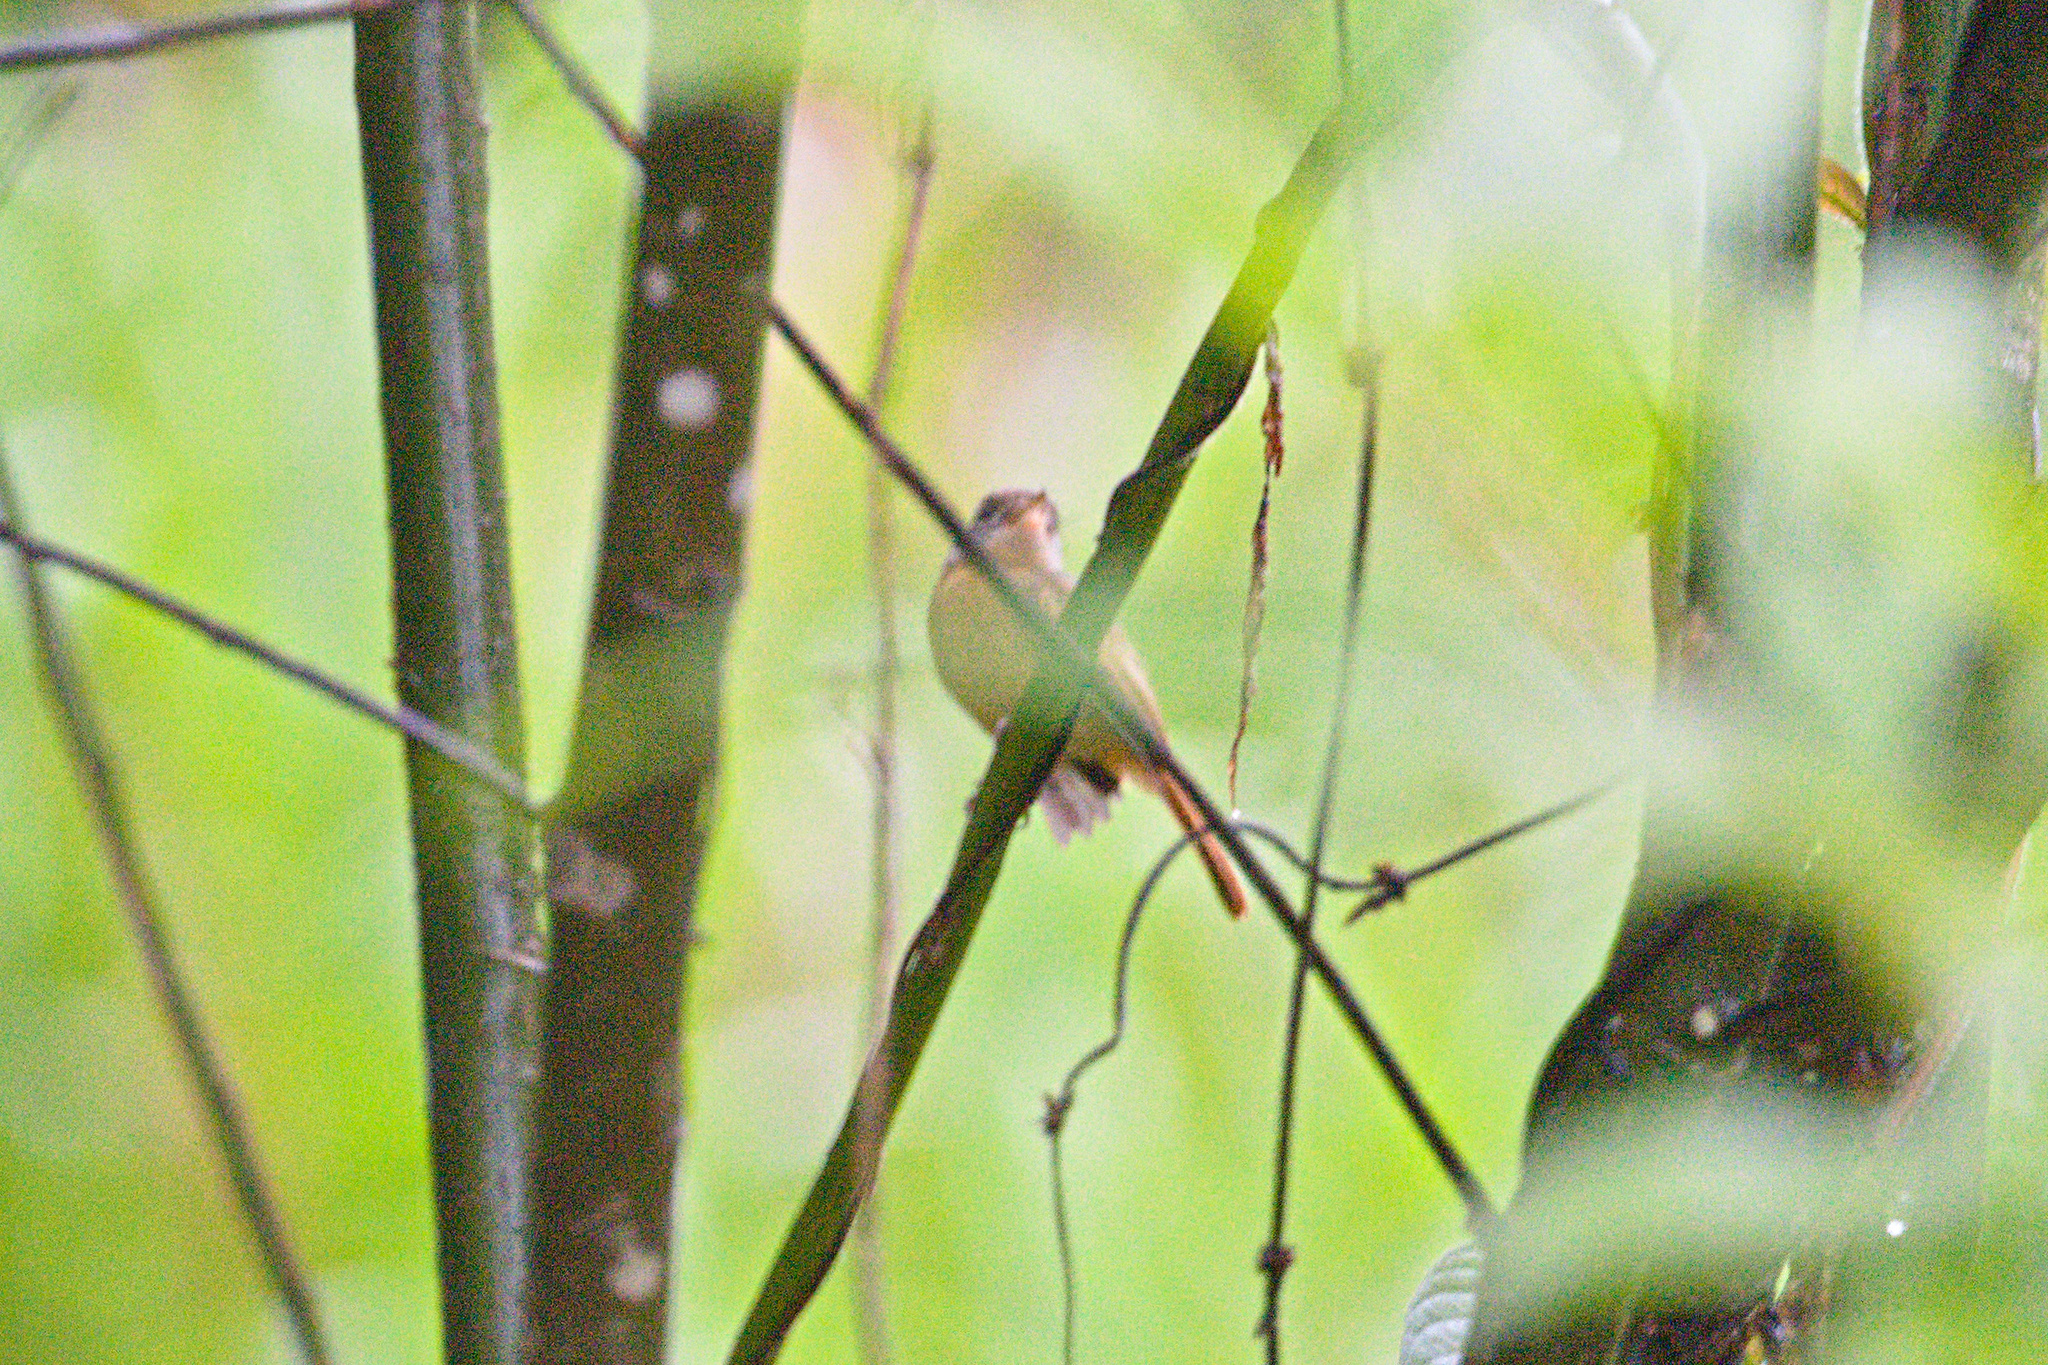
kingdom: Animalia
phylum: Chordata
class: Aves
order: Passeriformes
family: Tyrannidae
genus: Terenotriccus
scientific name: Terenotriccus erythrurus
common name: Ruddy-tailed flycatcher
